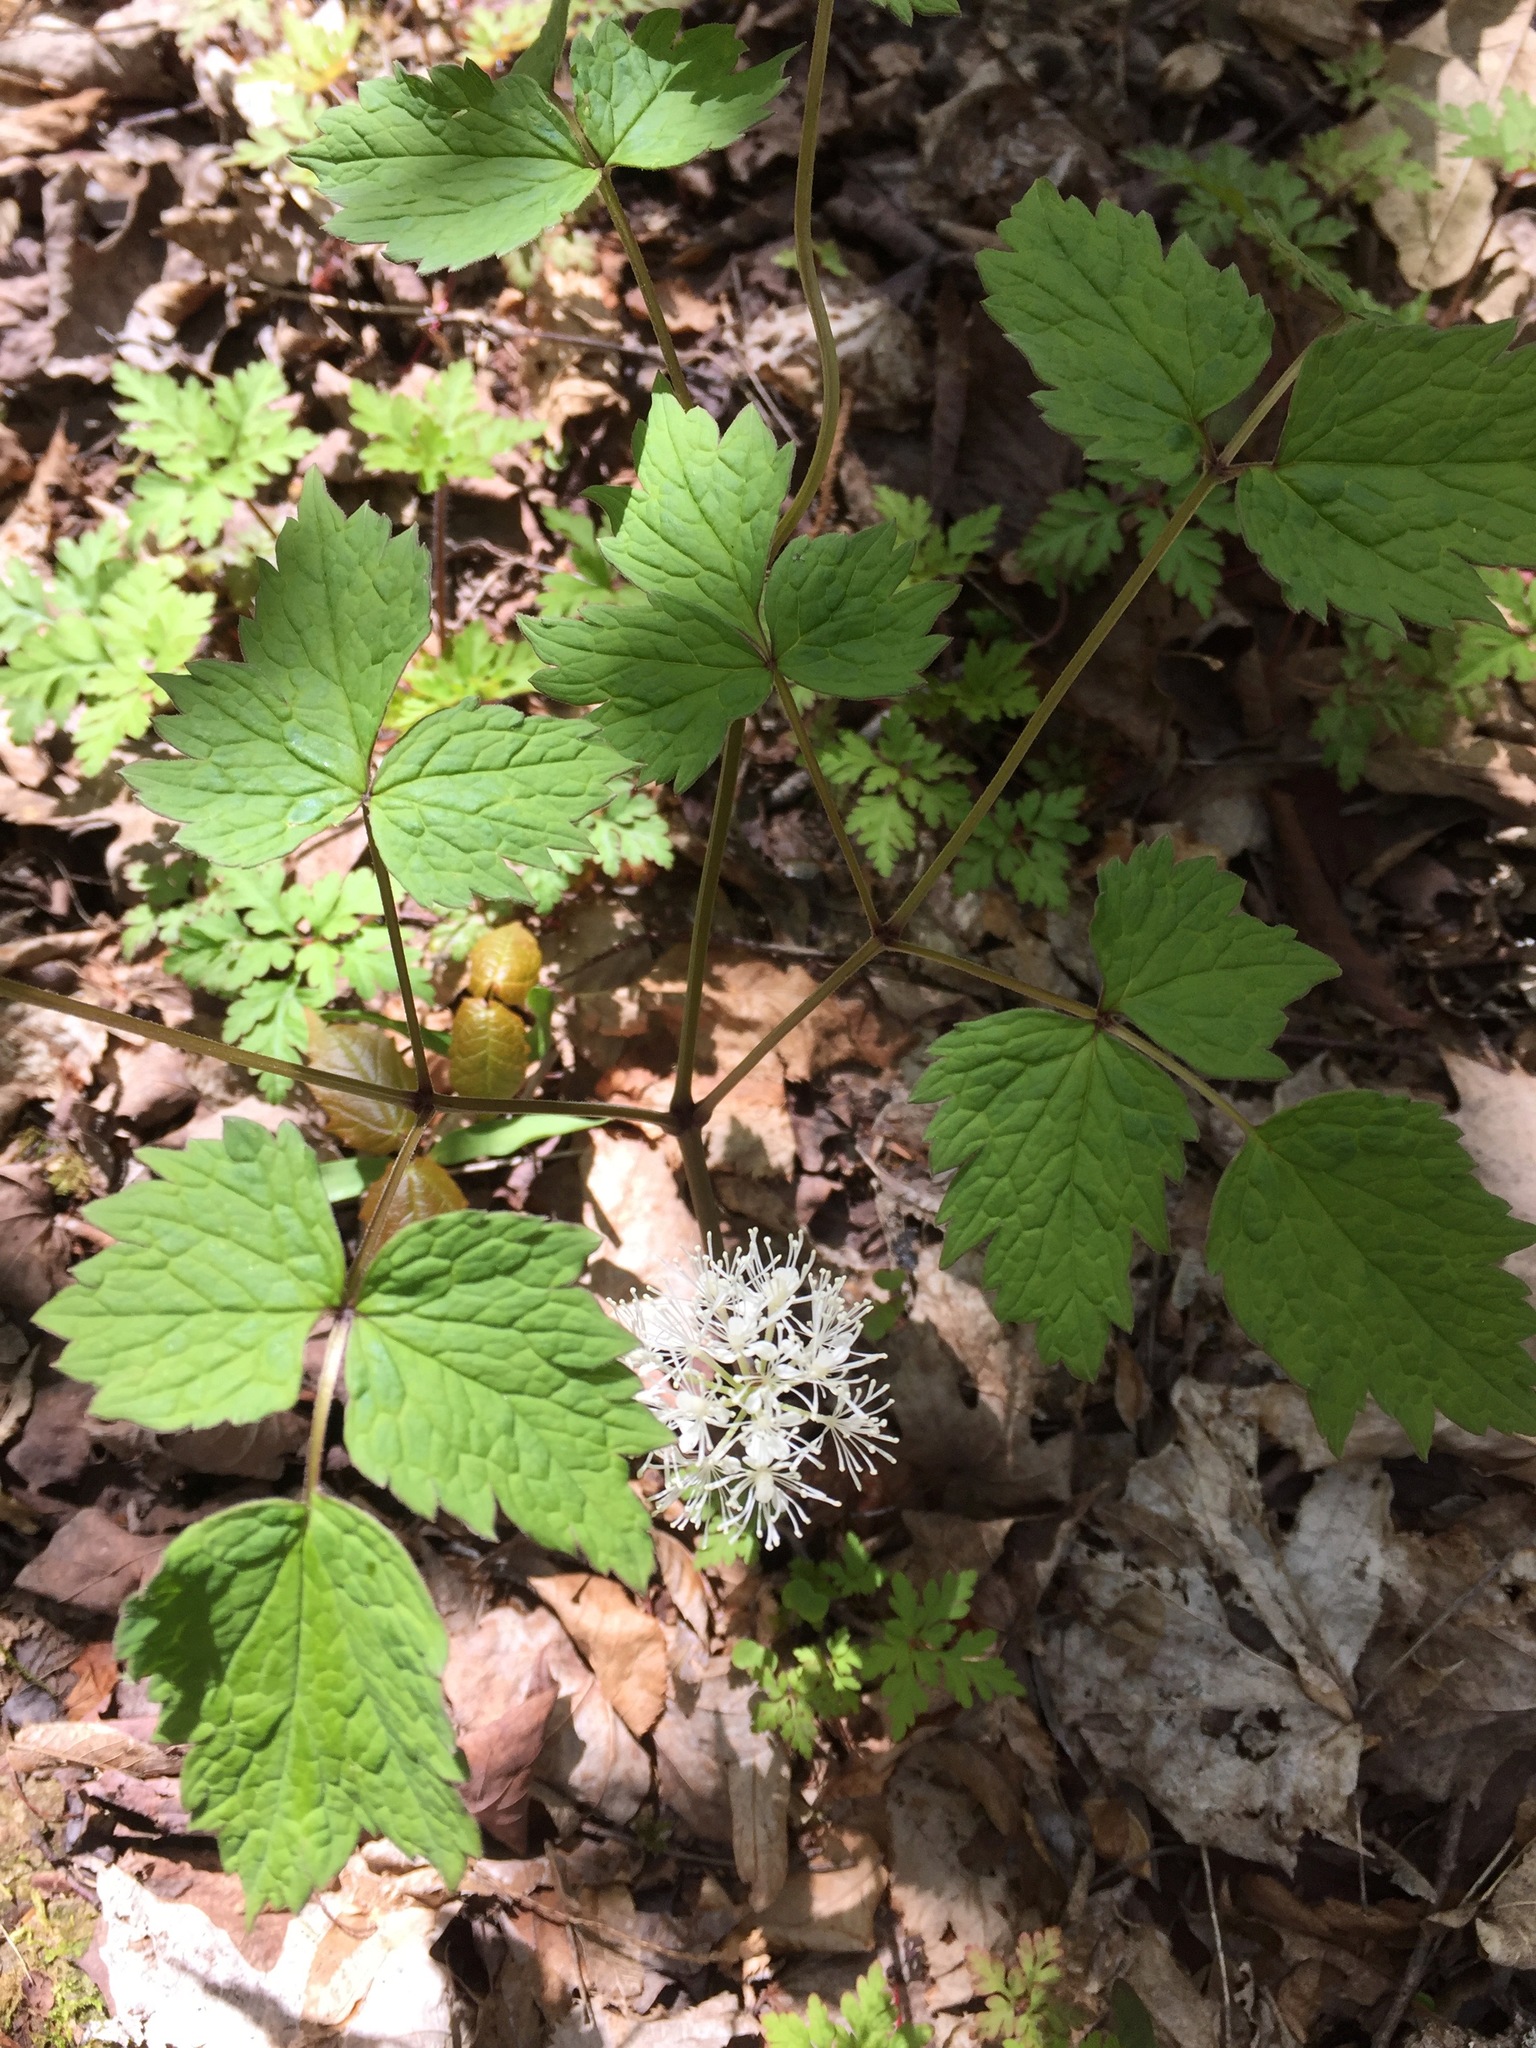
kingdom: Plantae
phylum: Tracheophyta
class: Magnoliopsida
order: Ranunculales
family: Ranunculaceae
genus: Actaea
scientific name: Actaea rubra
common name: Red baneberry
